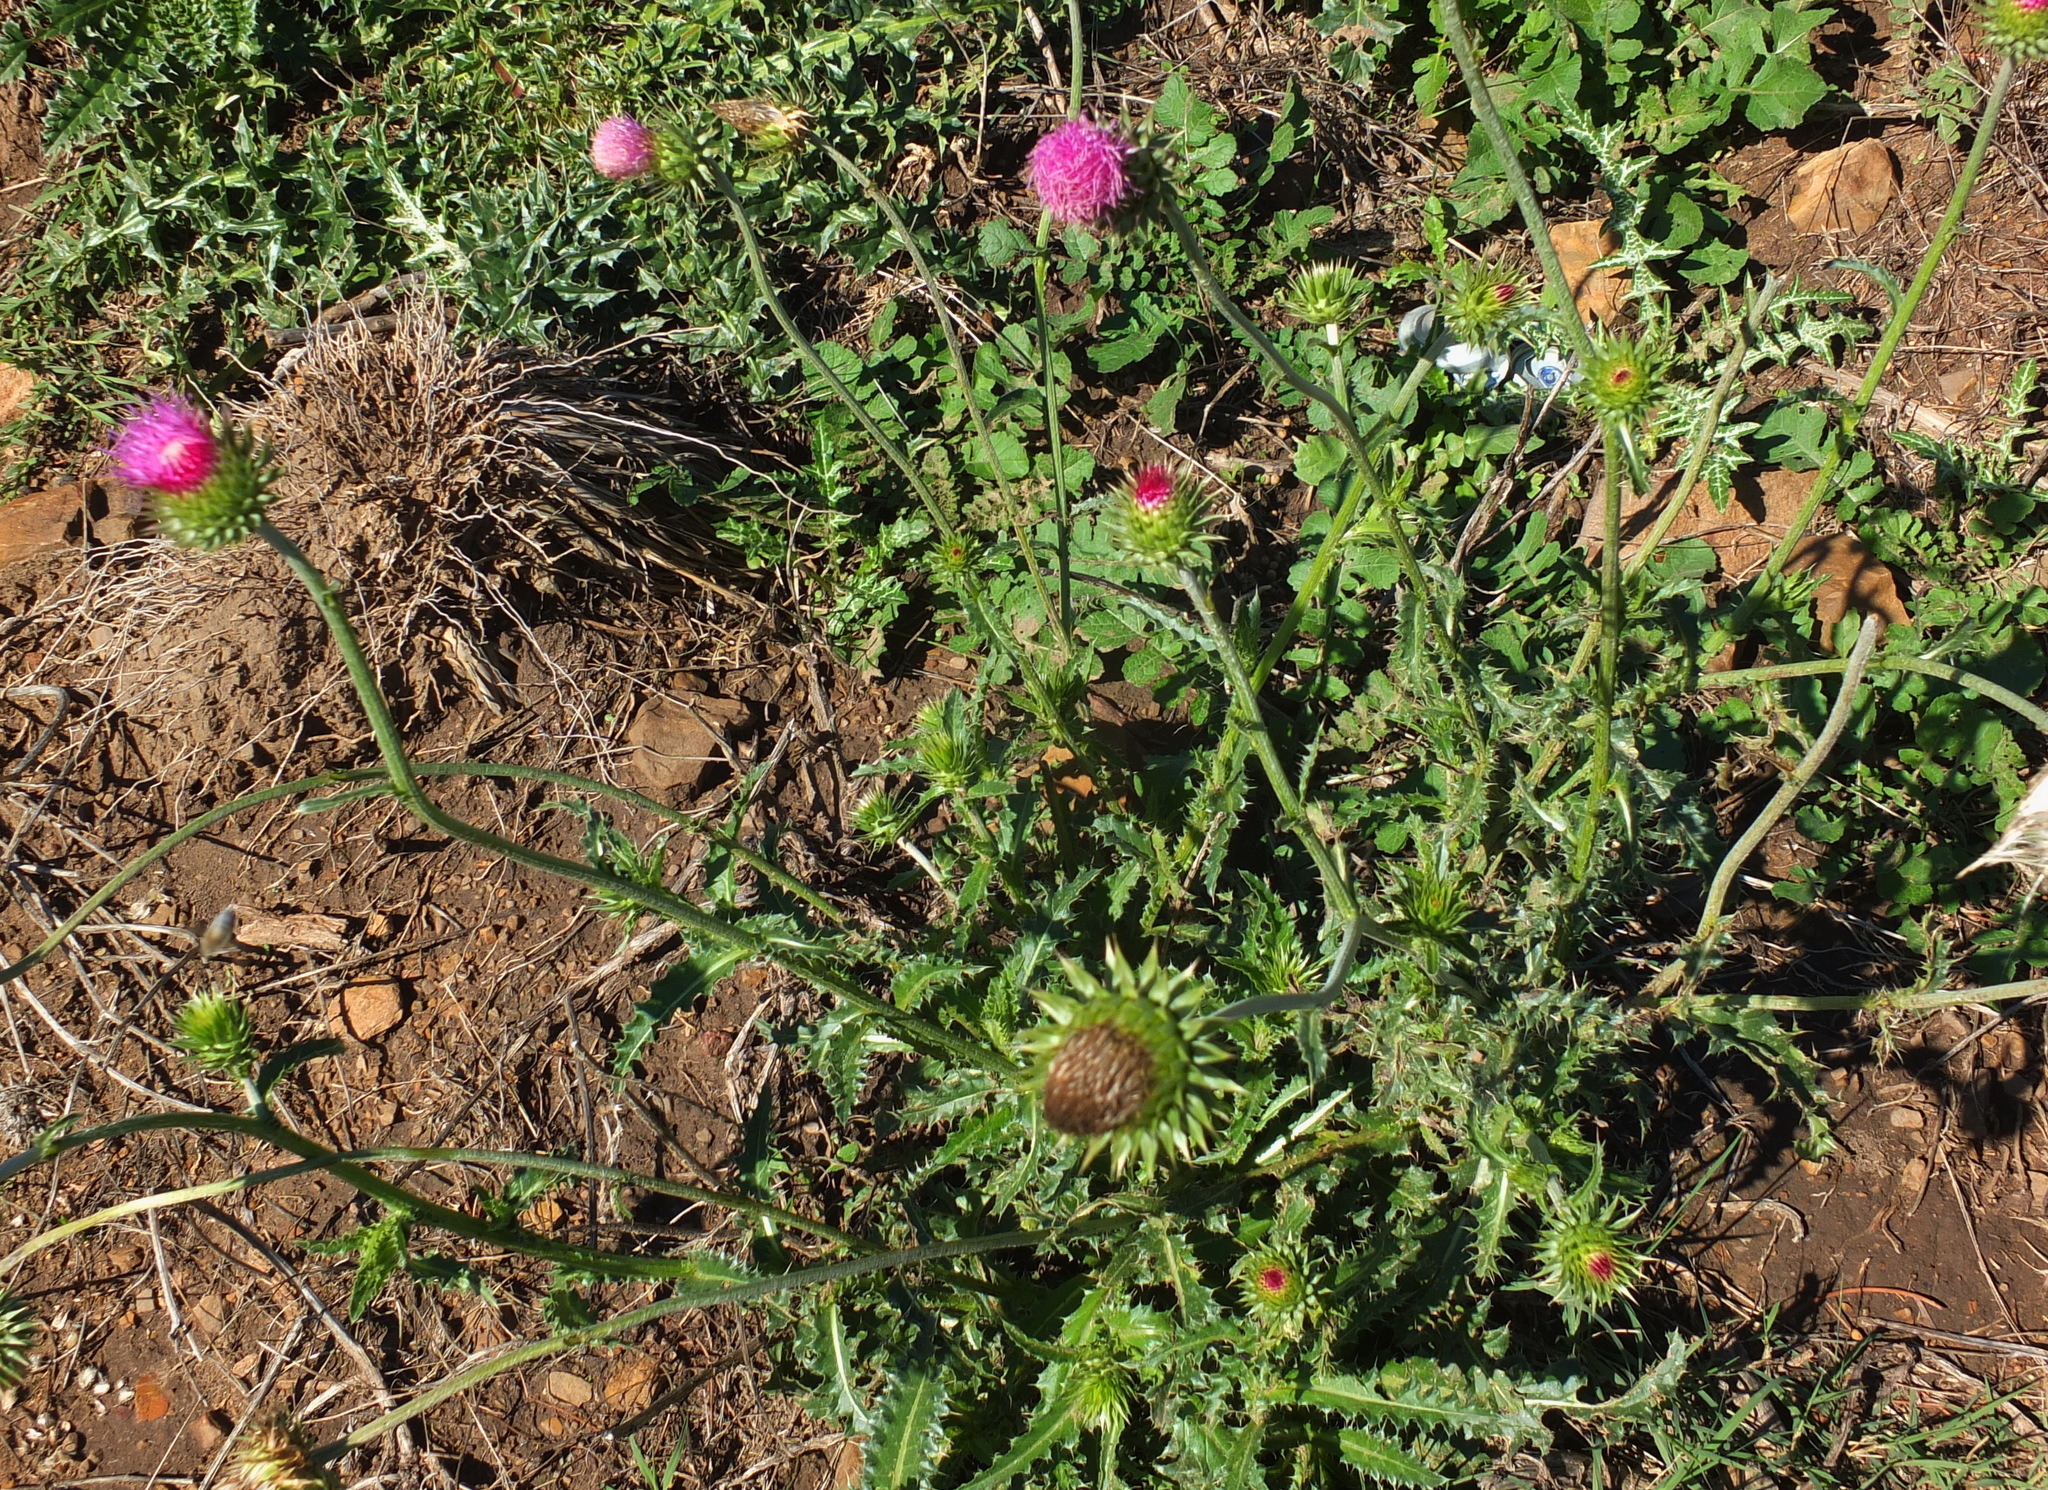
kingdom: Plantae
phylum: Tracheophyta
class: Magnoliopsida
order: Asterales
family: Asteraceae
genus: Carduus
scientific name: Carduus macrocephalus
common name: Giant thistle
